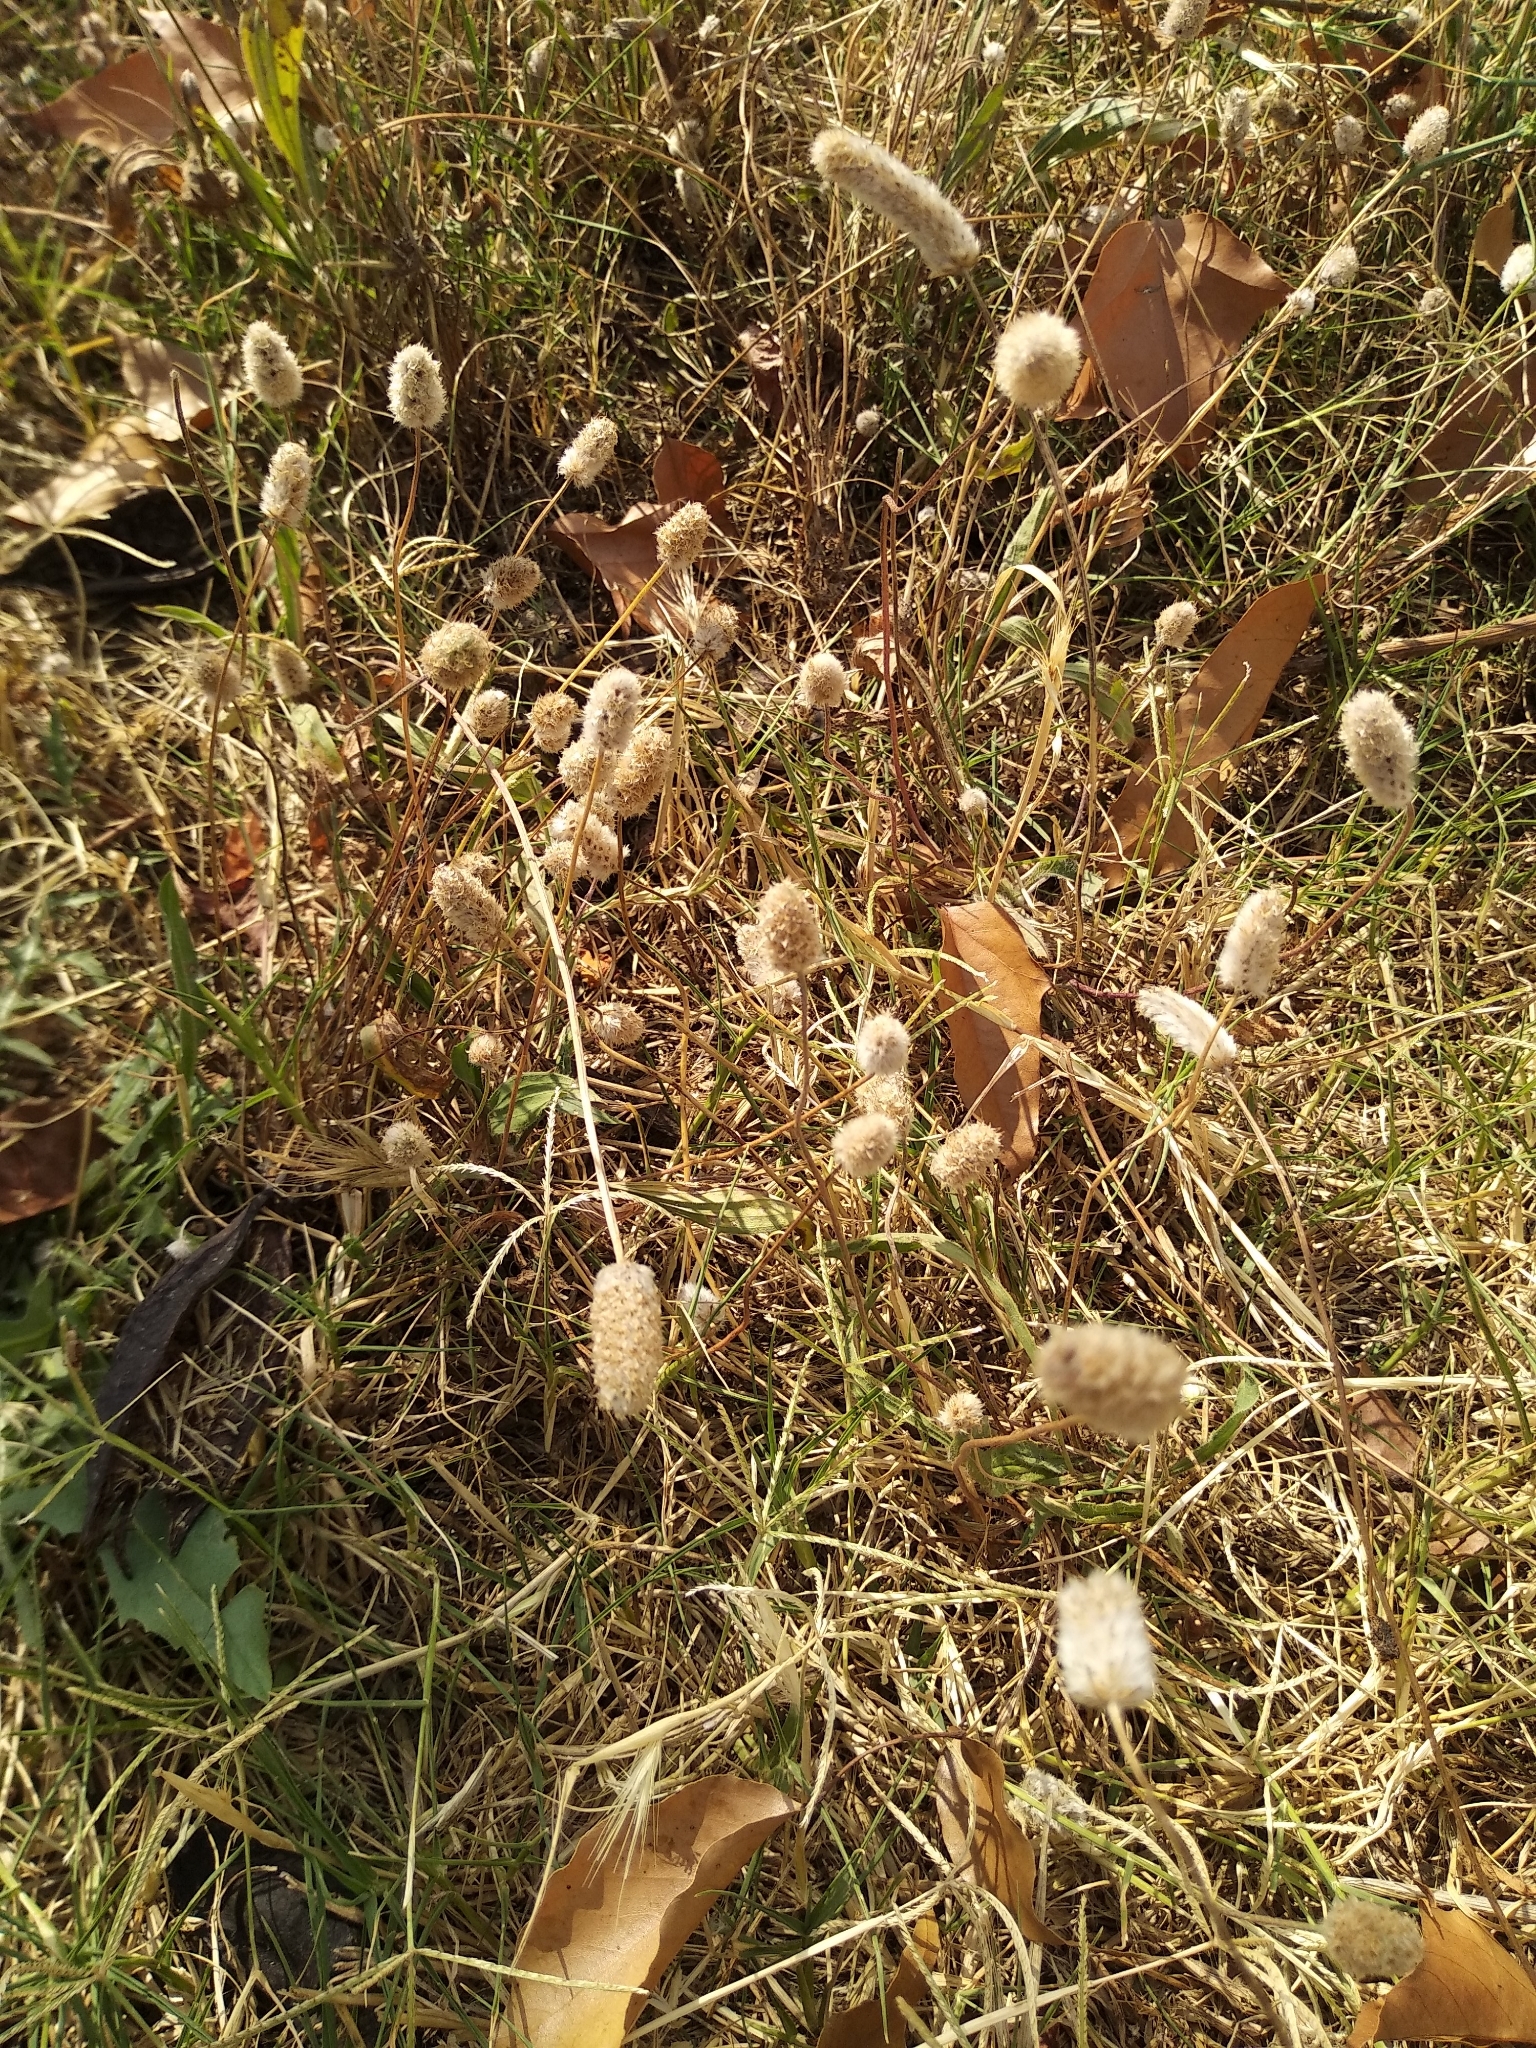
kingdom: Plantae
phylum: Tracheophyta
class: Magnoliopsida
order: Lamiales
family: Plantaginaceae
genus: Plantago
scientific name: Plantago lagopus
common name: Hare-foot plantain
